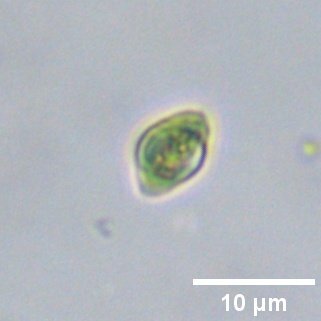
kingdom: Plantae
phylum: Chlorophyta
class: Chlorophyceae
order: Sphaeropleales
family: Hydrodictyaceae
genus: Tetraedron
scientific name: Tetraedron minimum
